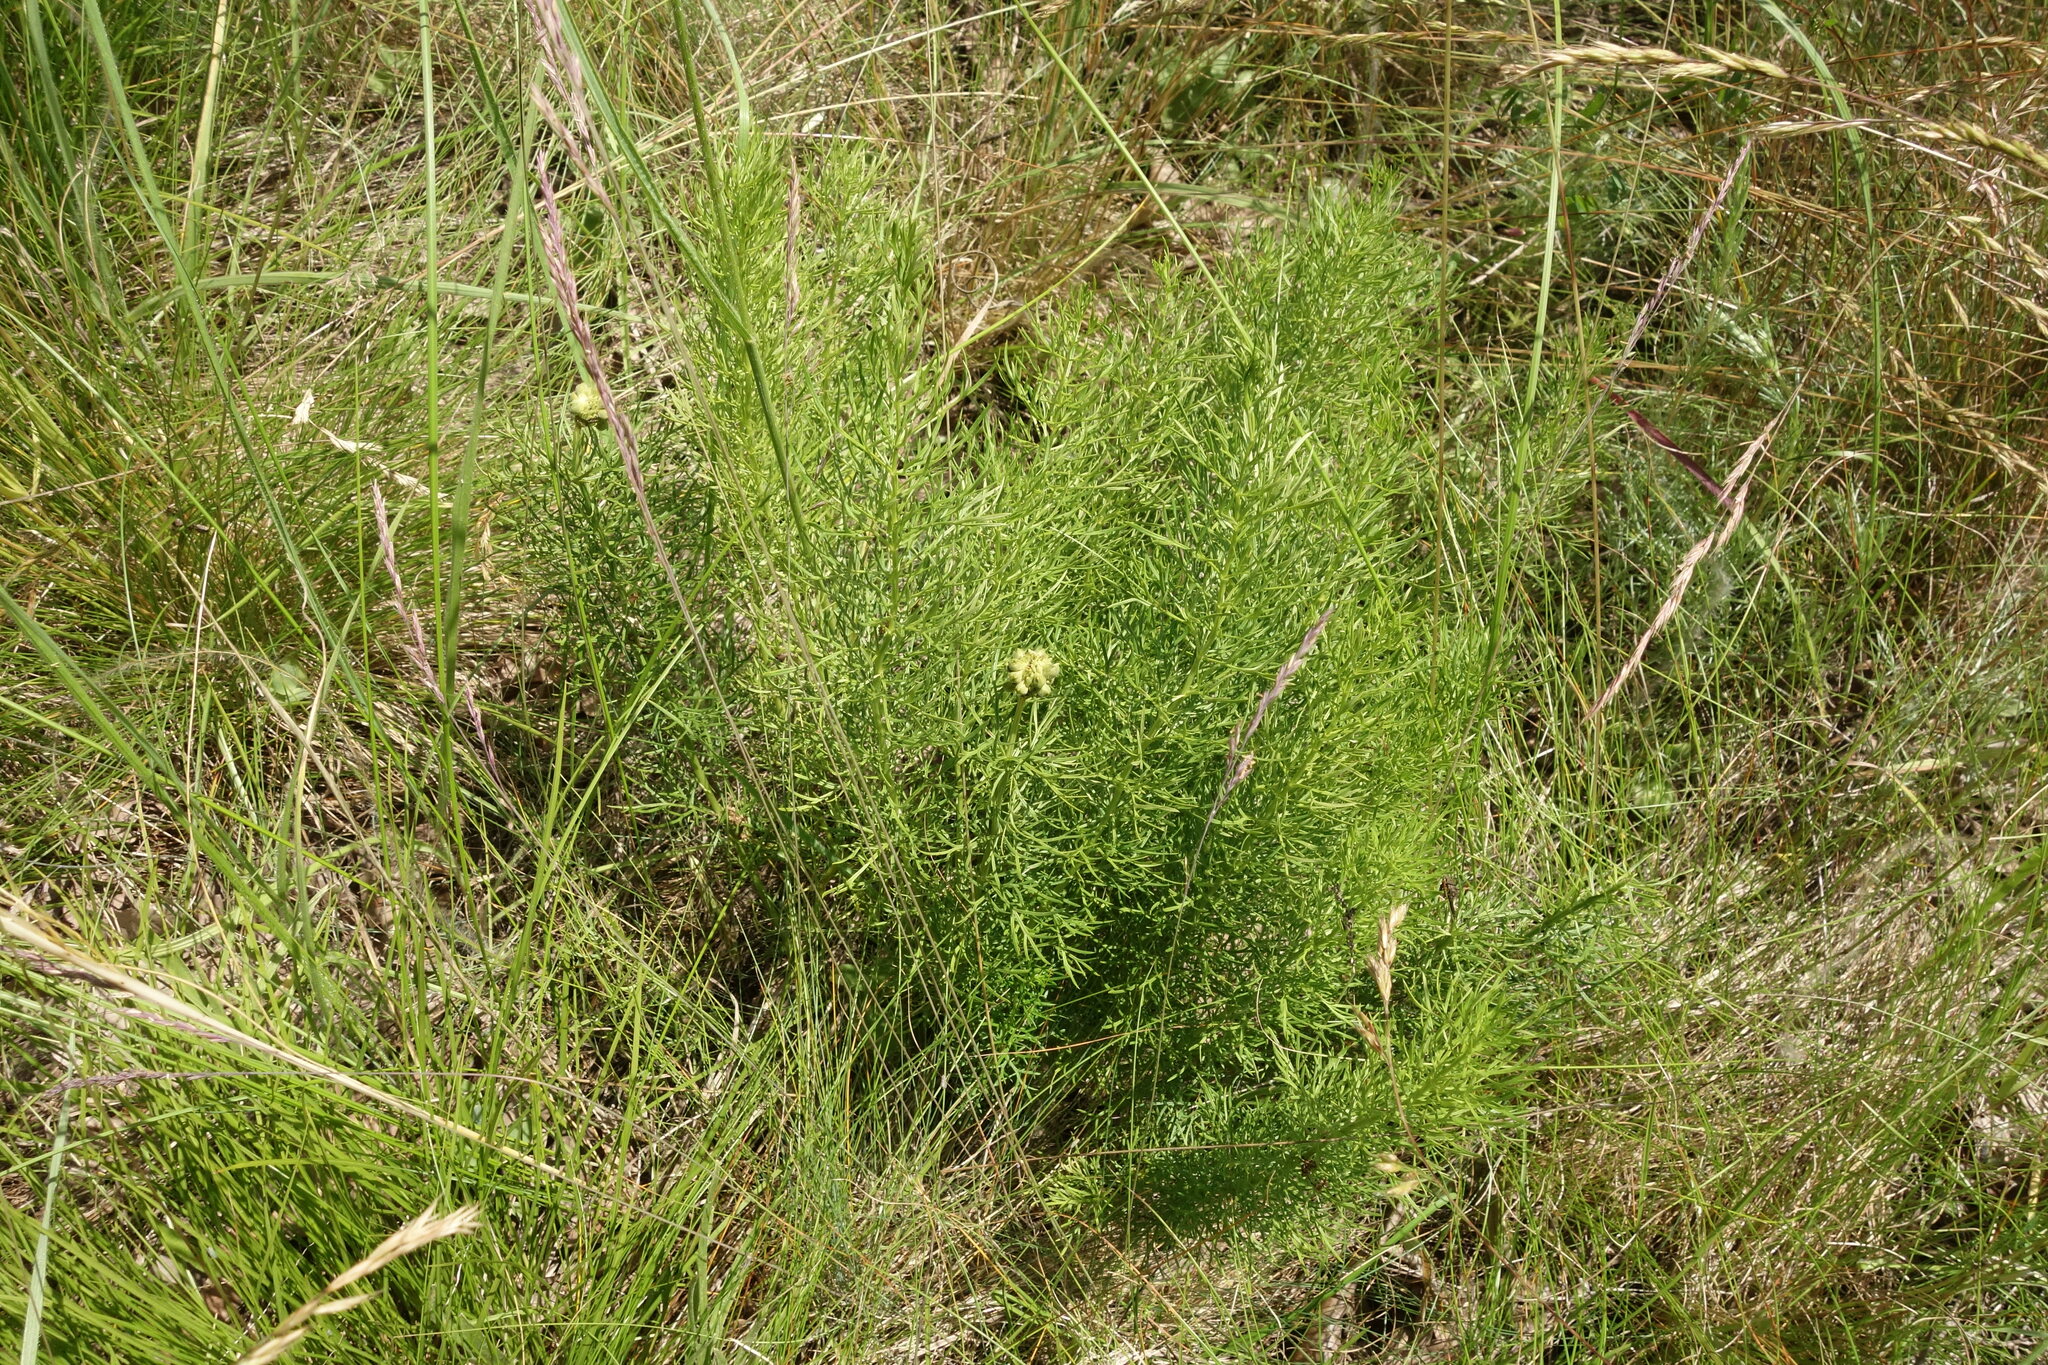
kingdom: Plantae
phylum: Tracheophyta
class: Magnoliopsida
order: Ranunculales
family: Ranunculaceae
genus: Adonis
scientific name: Adonis vernalis
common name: Yellow pheasants-eye
